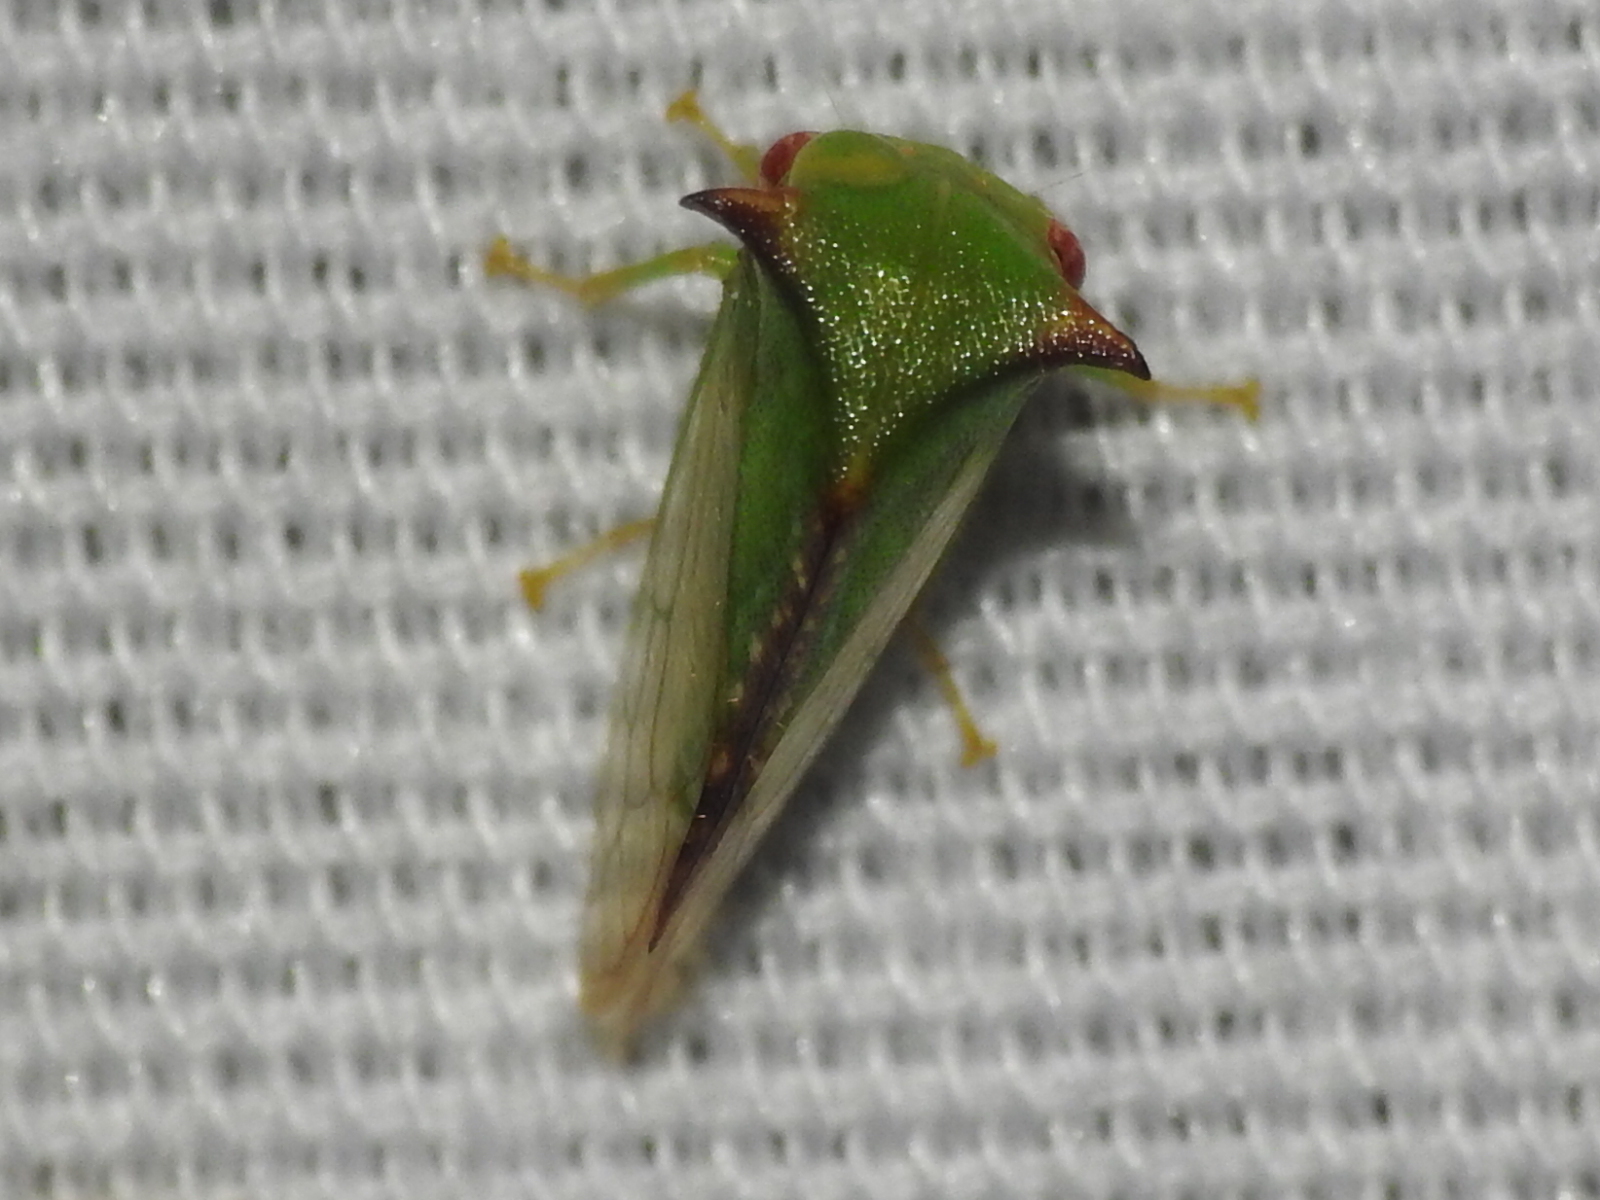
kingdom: Animalia
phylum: Arthropoda
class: Insecta
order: Hemiptera
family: Membracidae
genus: Stictocephala
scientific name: Stictocephala militaris
